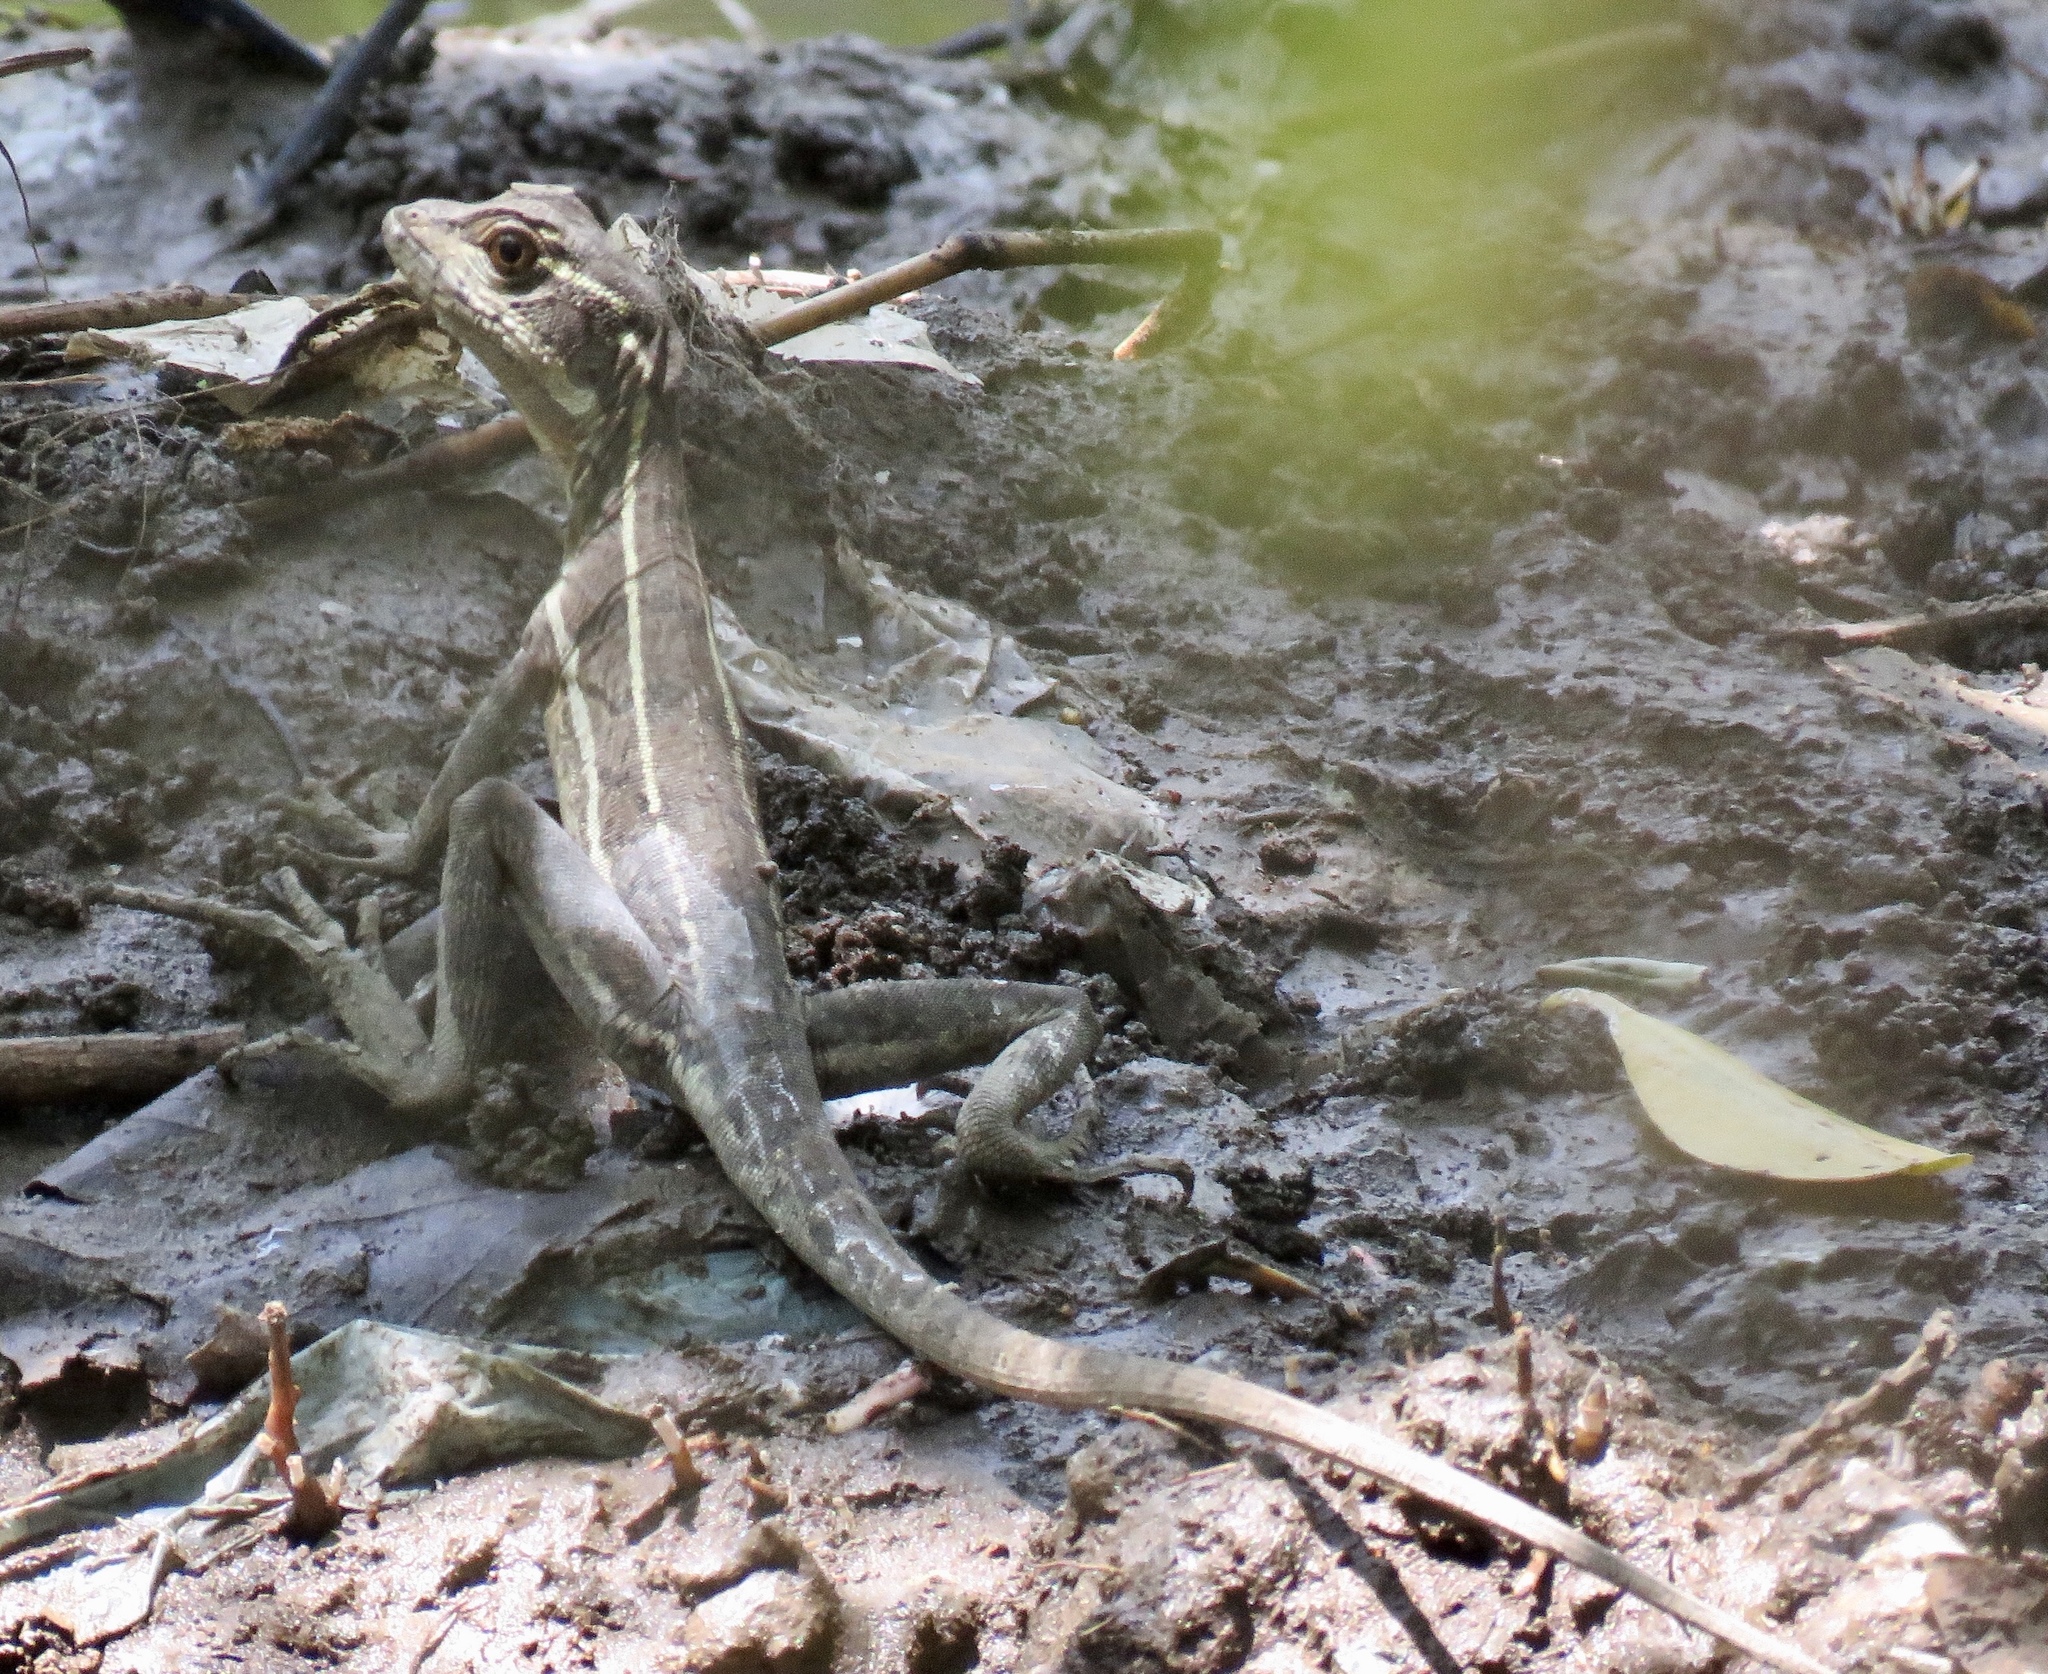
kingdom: Animalia
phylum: Chordata
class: Squamata
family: Corytophanidae
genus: Basiliscus
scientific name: Basiliscus basiliscus
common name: Common basilisk
